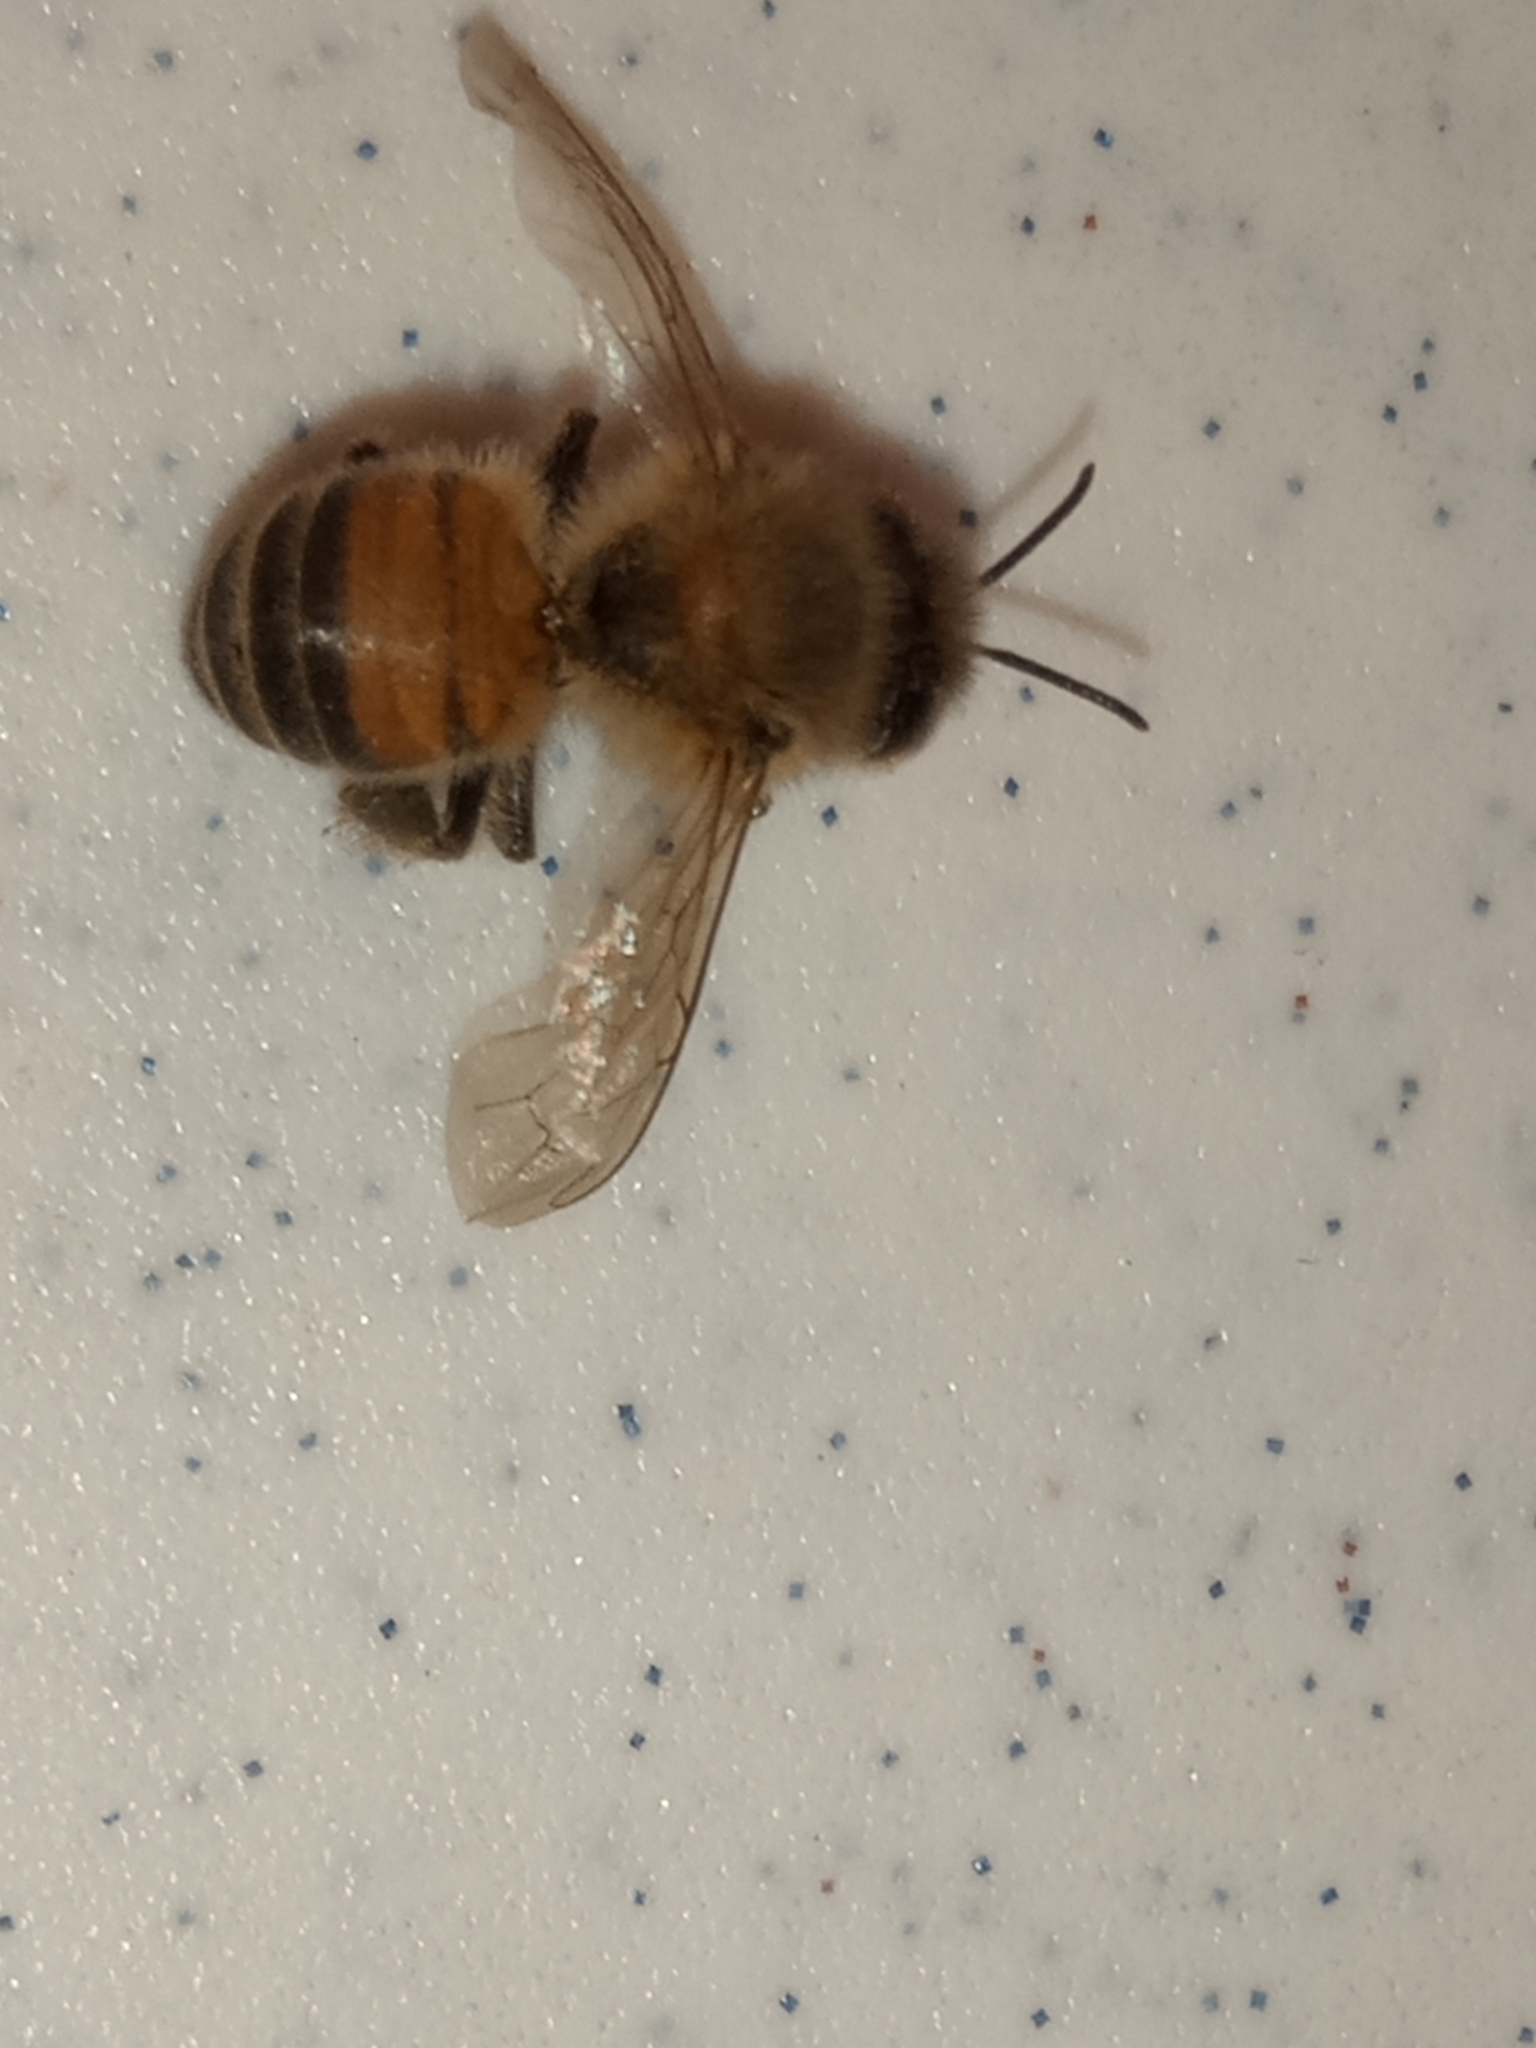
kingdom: Animalia
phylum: Arthropoda
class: Insecta
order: Hymenoptera
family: Apidae
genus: Apis
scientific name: Apis mellifera
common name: Honey bee
